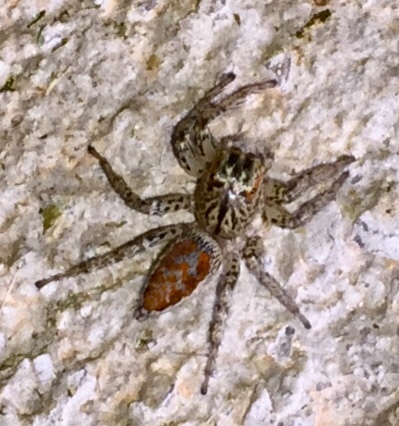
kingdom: Animalia
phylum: Arthropoda
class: Arachnida
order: Araneae
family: Salticidae
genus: Maevia
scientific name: Maevia inclemens
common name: Dimorphic jumper
